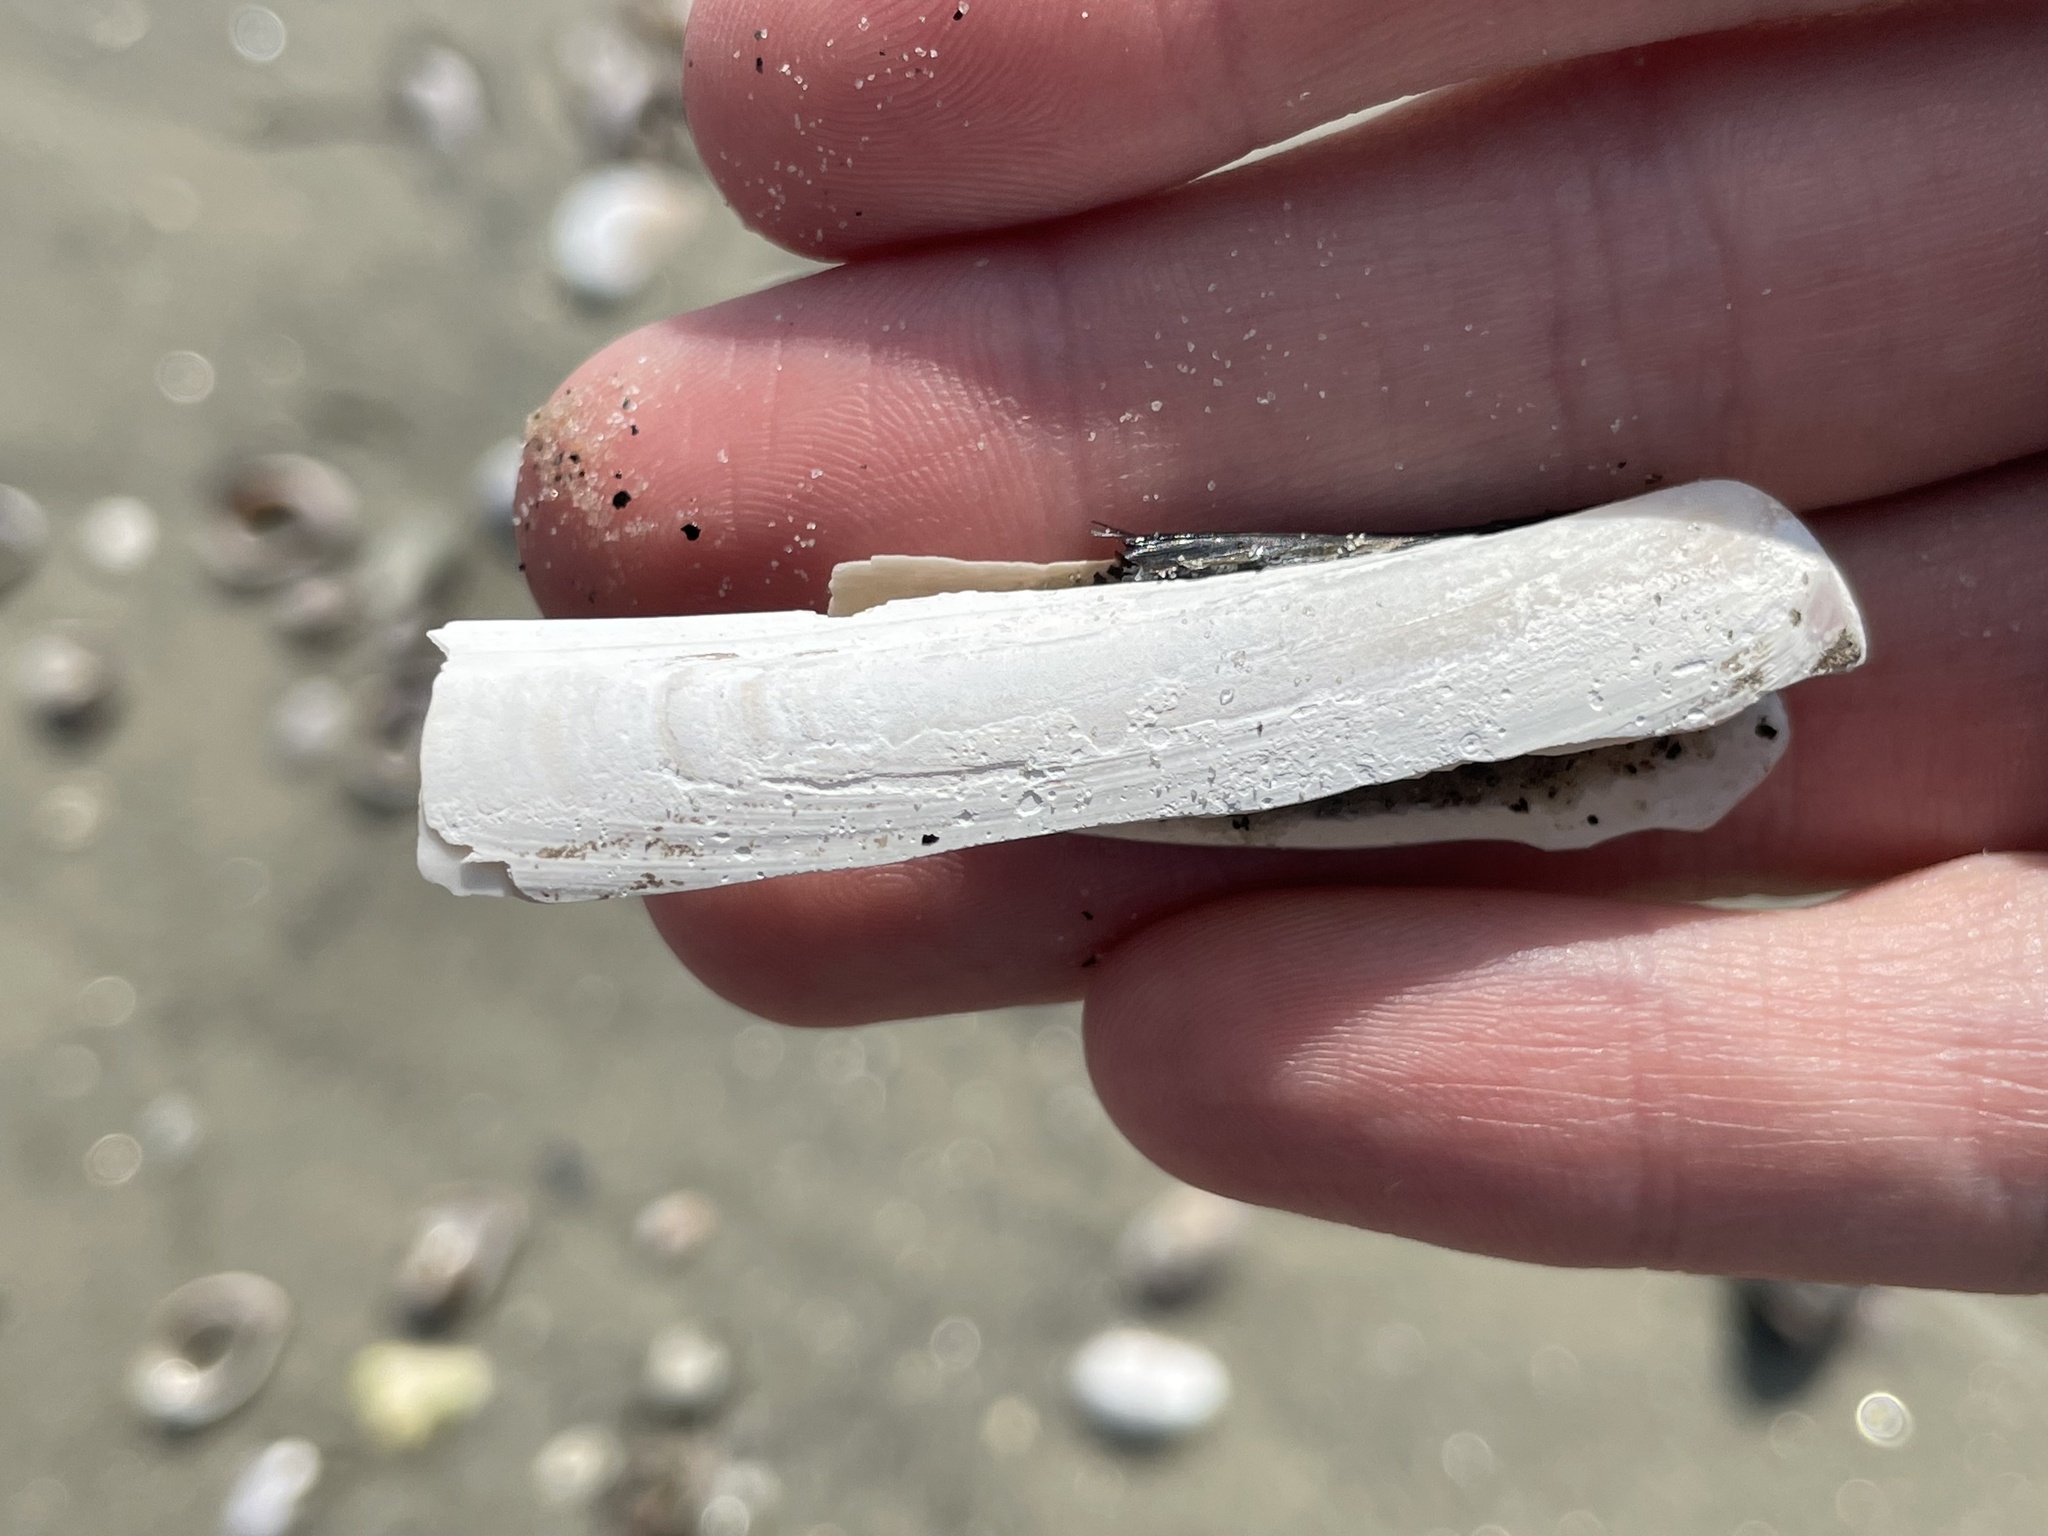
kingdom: Animalia
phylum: Mollusca
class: Bivalvia
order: Adapedonta
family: Pharidae
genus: Ensis
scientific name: Ensis leei
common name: American jack knife clam
